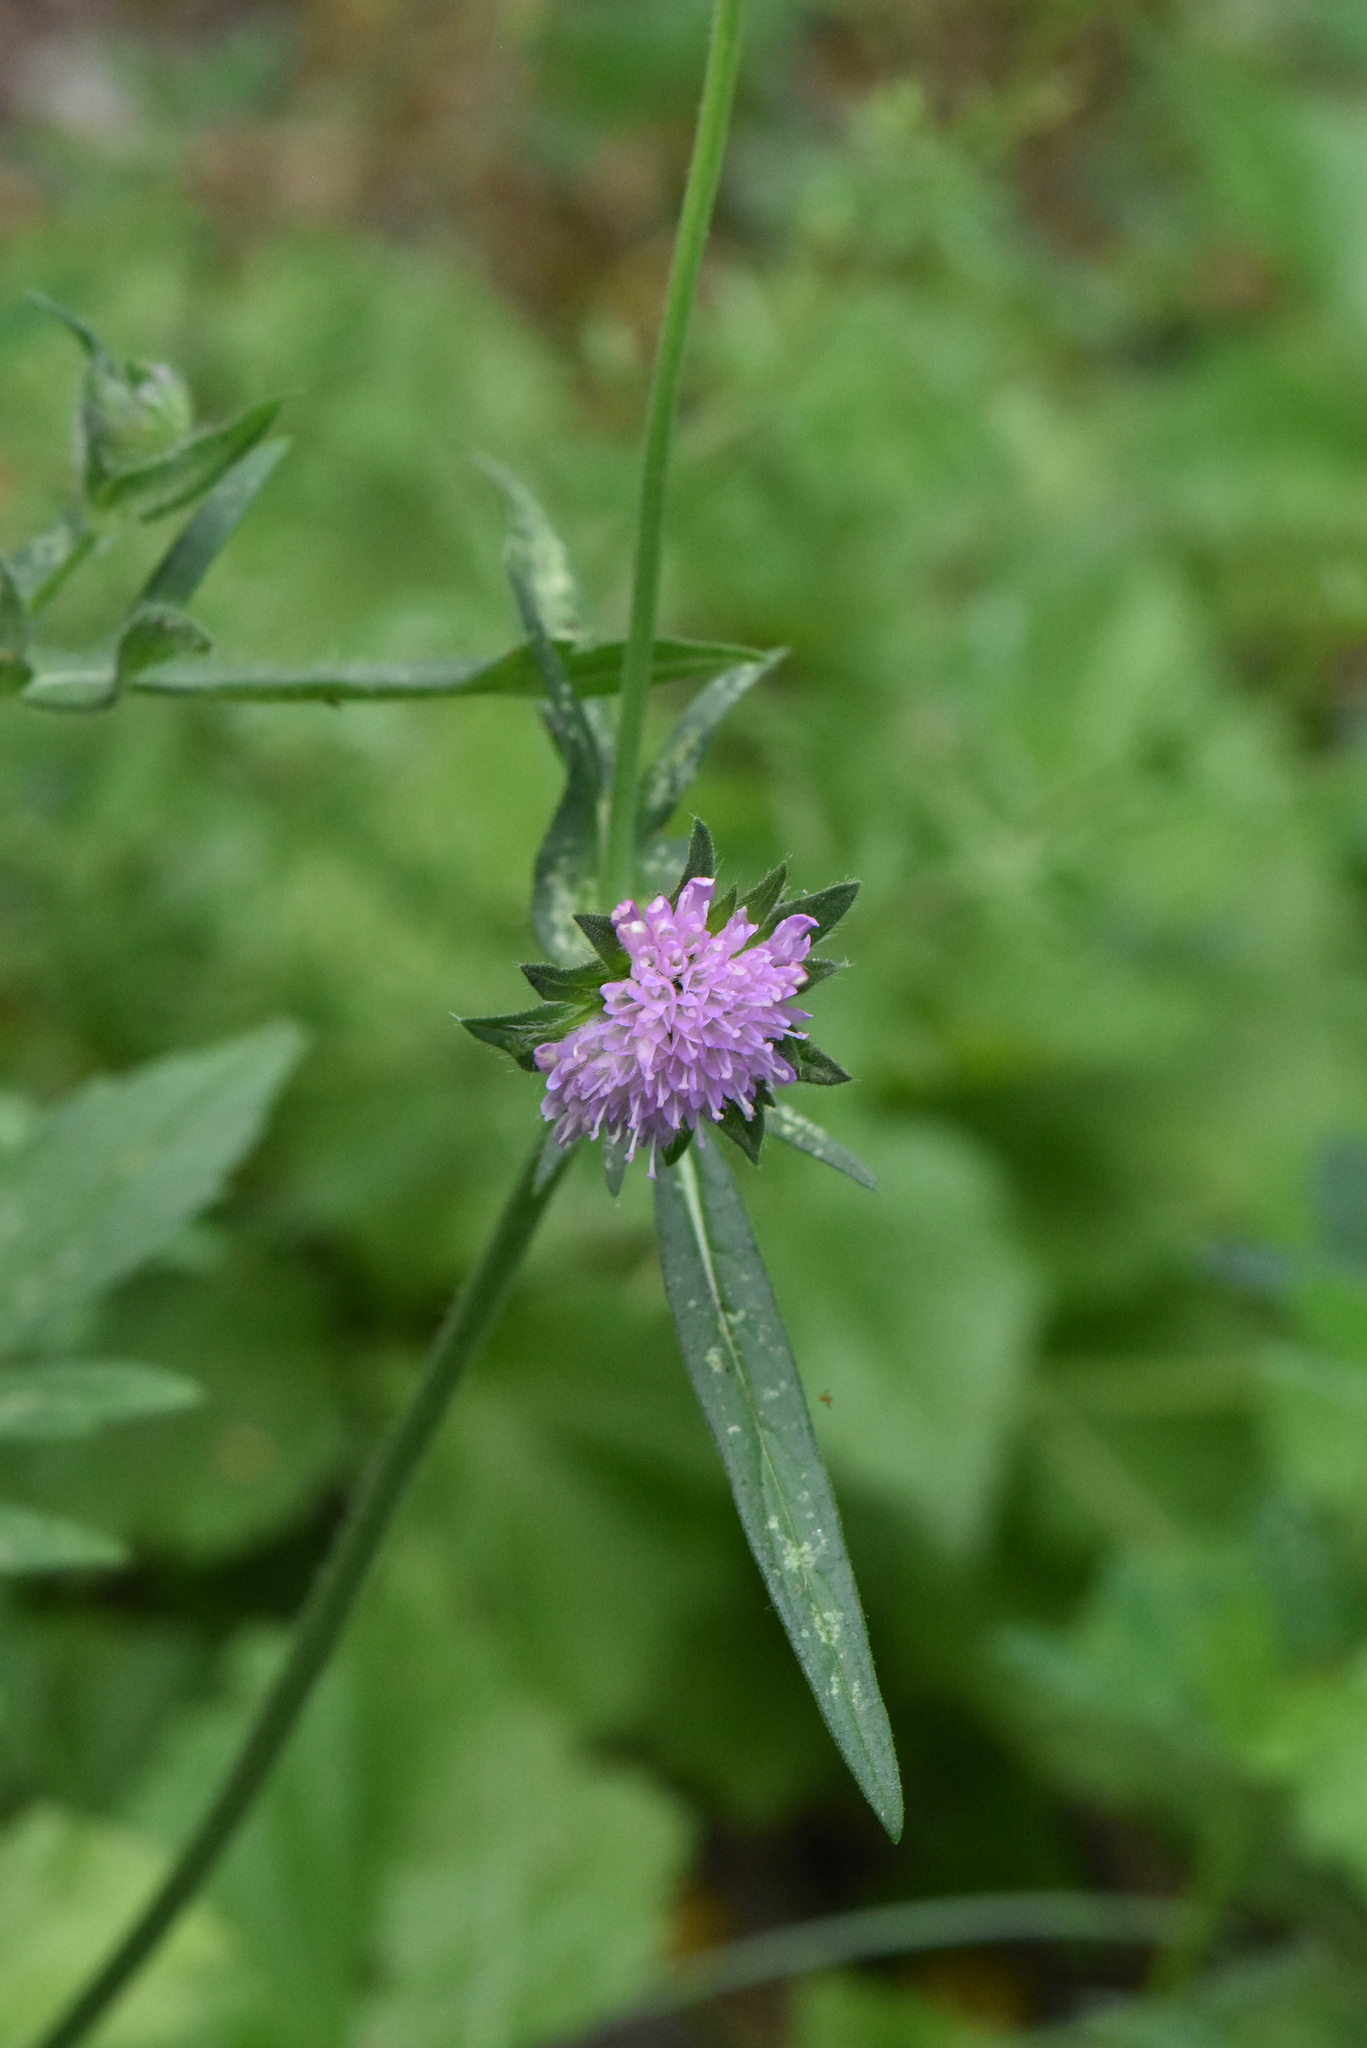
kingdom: Plantae
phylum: Tracheophyta
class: Magnoliopsida
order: Dipsacales
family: Caprifoliaceae
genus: Knautia
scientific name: Knautia arvensis
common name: Field scabiosa
